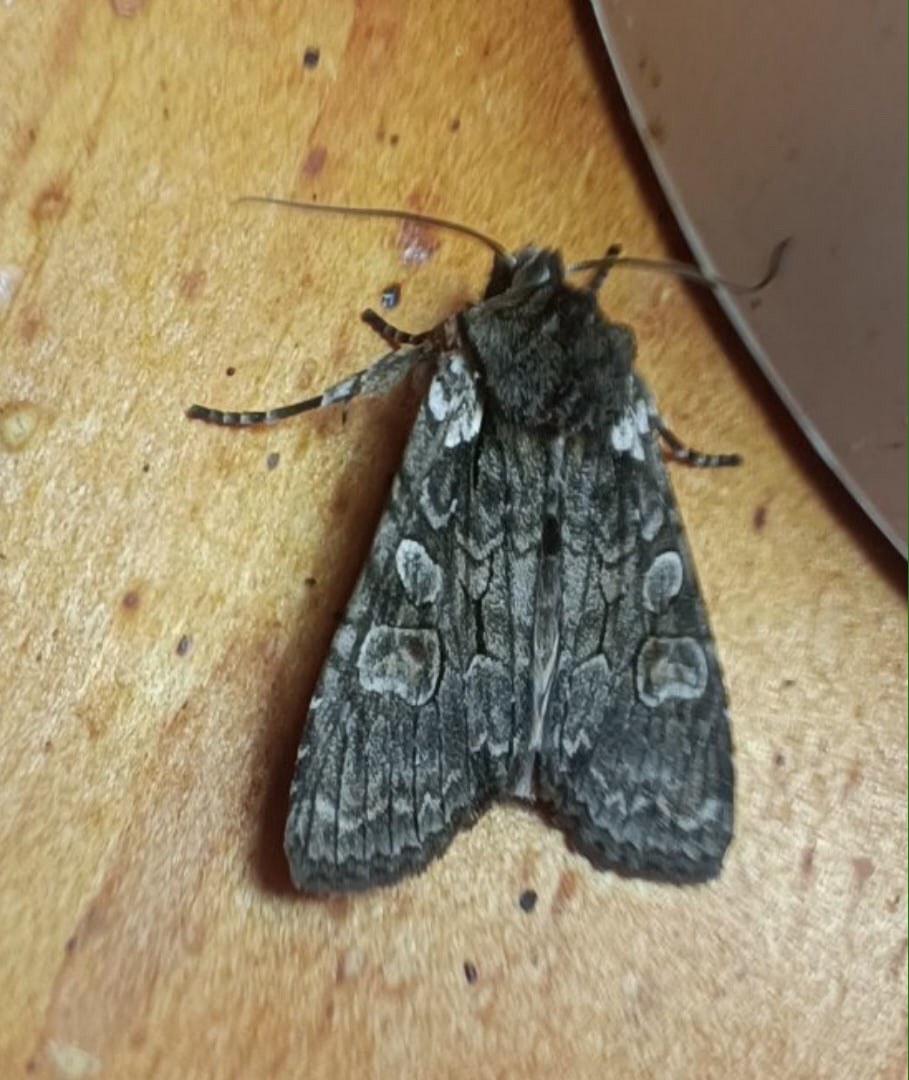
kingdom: Animalia
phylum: Arthropoda
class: Insecta
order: Lepidoptera
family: Noctuidae
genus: Lithophane
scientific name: Lithophane consocia
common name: Softly's shoulder-knot
